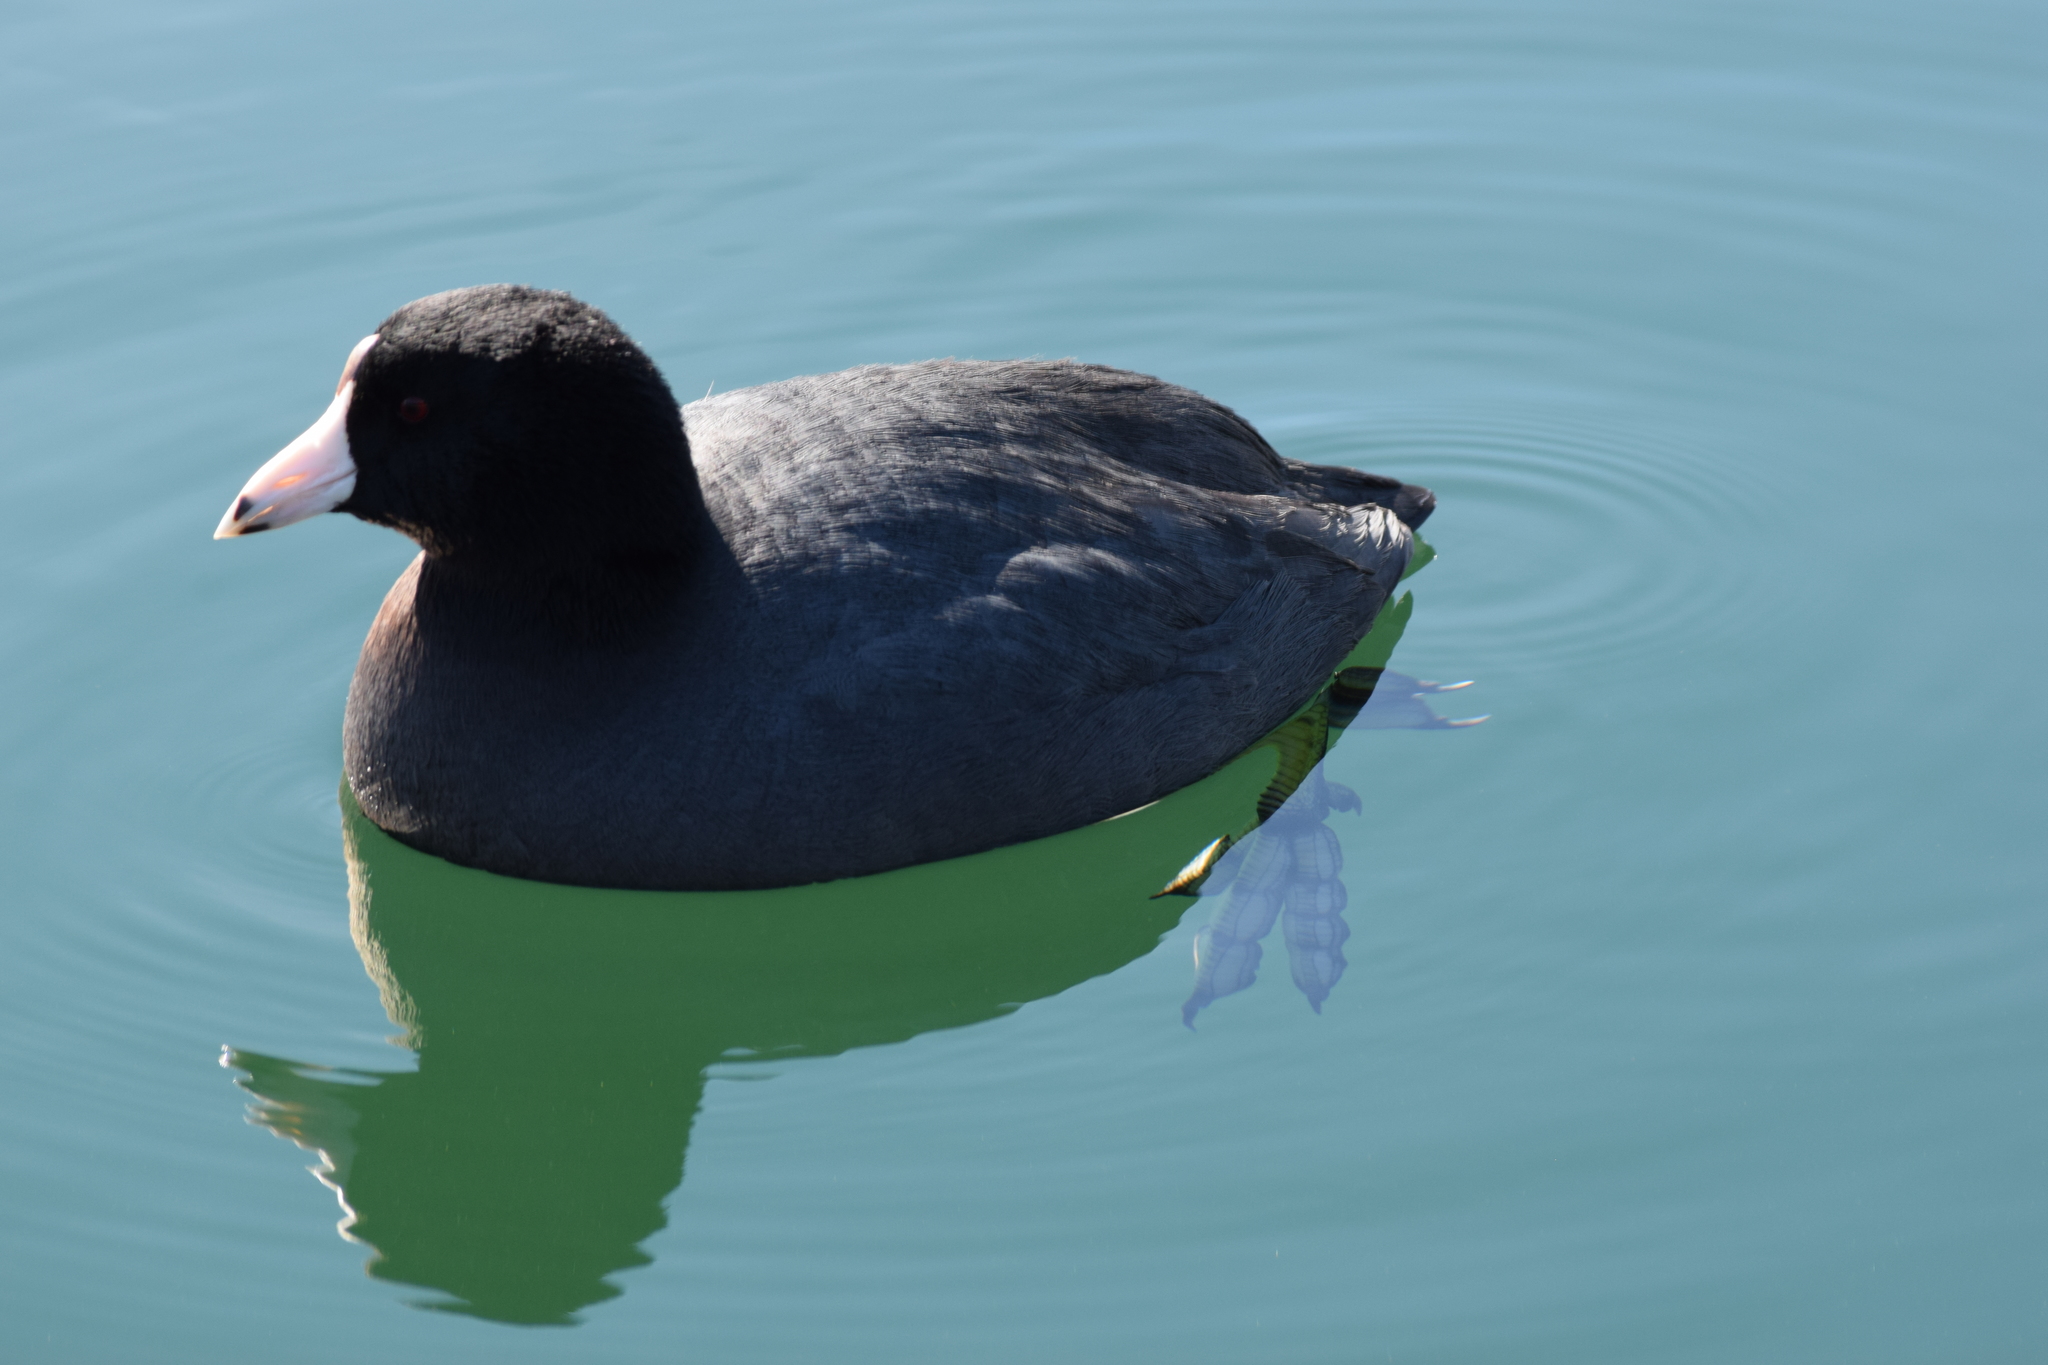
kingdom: Animalia
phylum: Chordata
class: Aves
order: Gruiformes
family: Rallidae
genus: Fulica
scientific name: Fulica americana
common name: American coot
